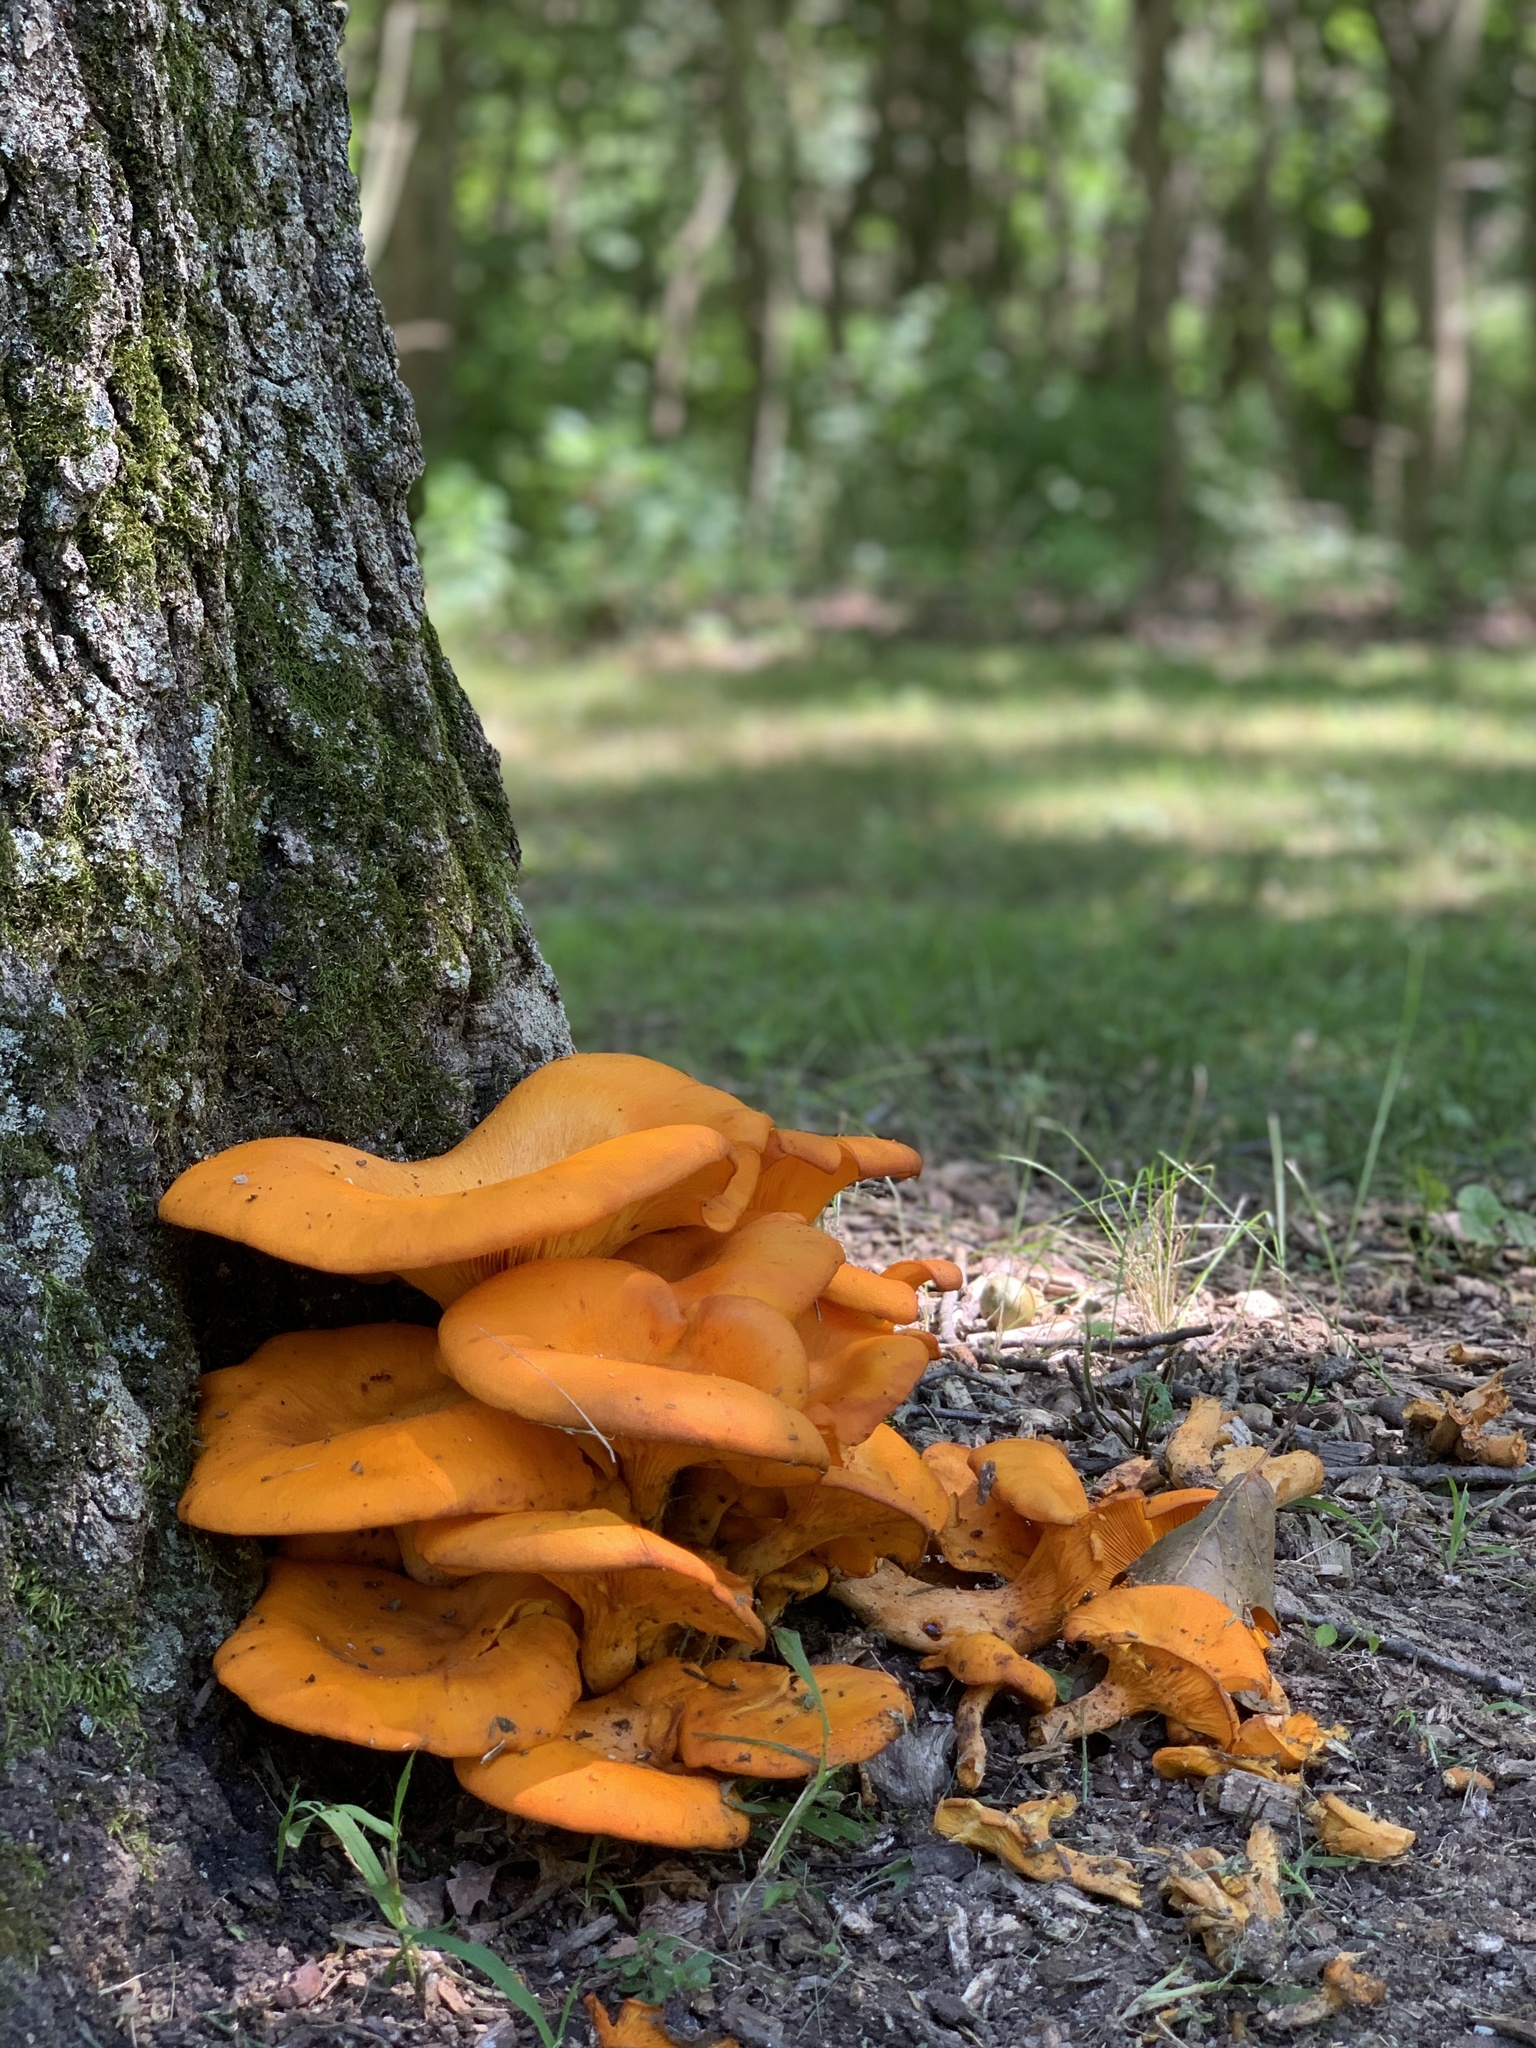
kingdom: Fungi
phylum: Basidiomycota
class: Agaricomycetes
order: Agaricales
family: Omphalotaceae
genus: Omphalotus
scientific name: Omphalotus illudens
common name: Jack o lantern
